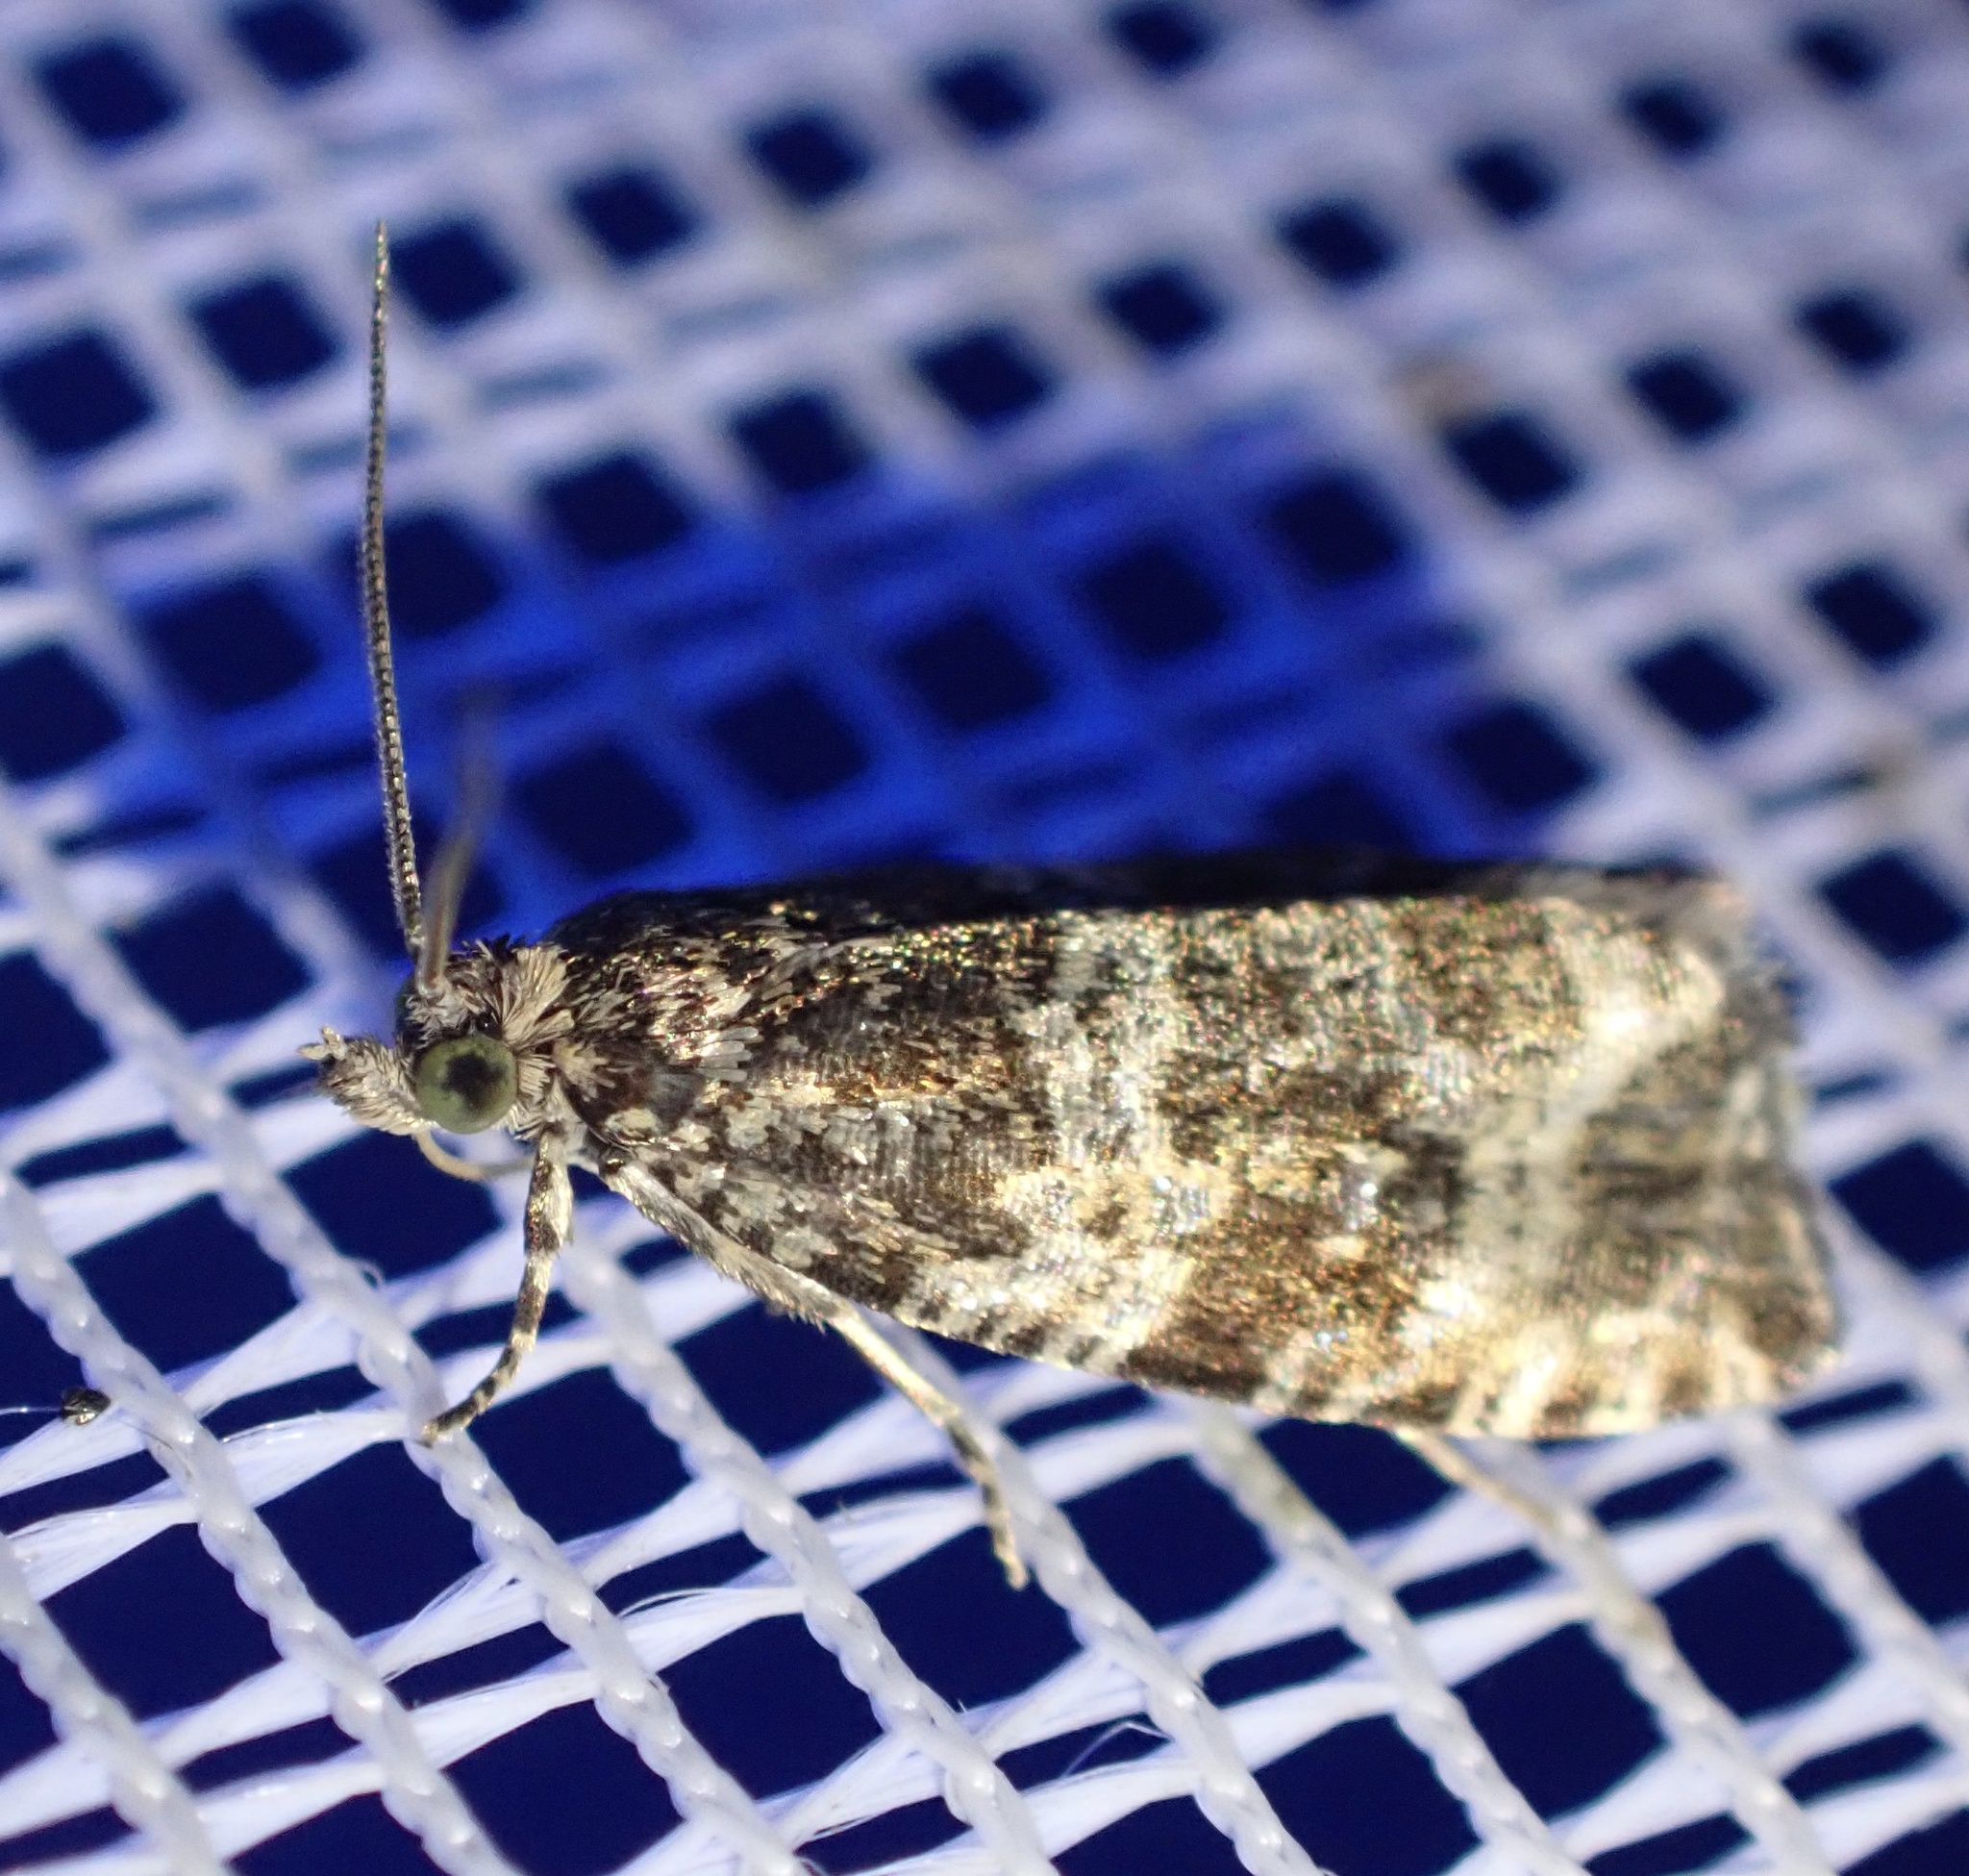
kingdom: Animalia
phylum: Arthropoda
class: Insecta
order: Lepidoptera
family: Tortricidae
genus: Syricoris
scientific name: Syricoris lacunana
